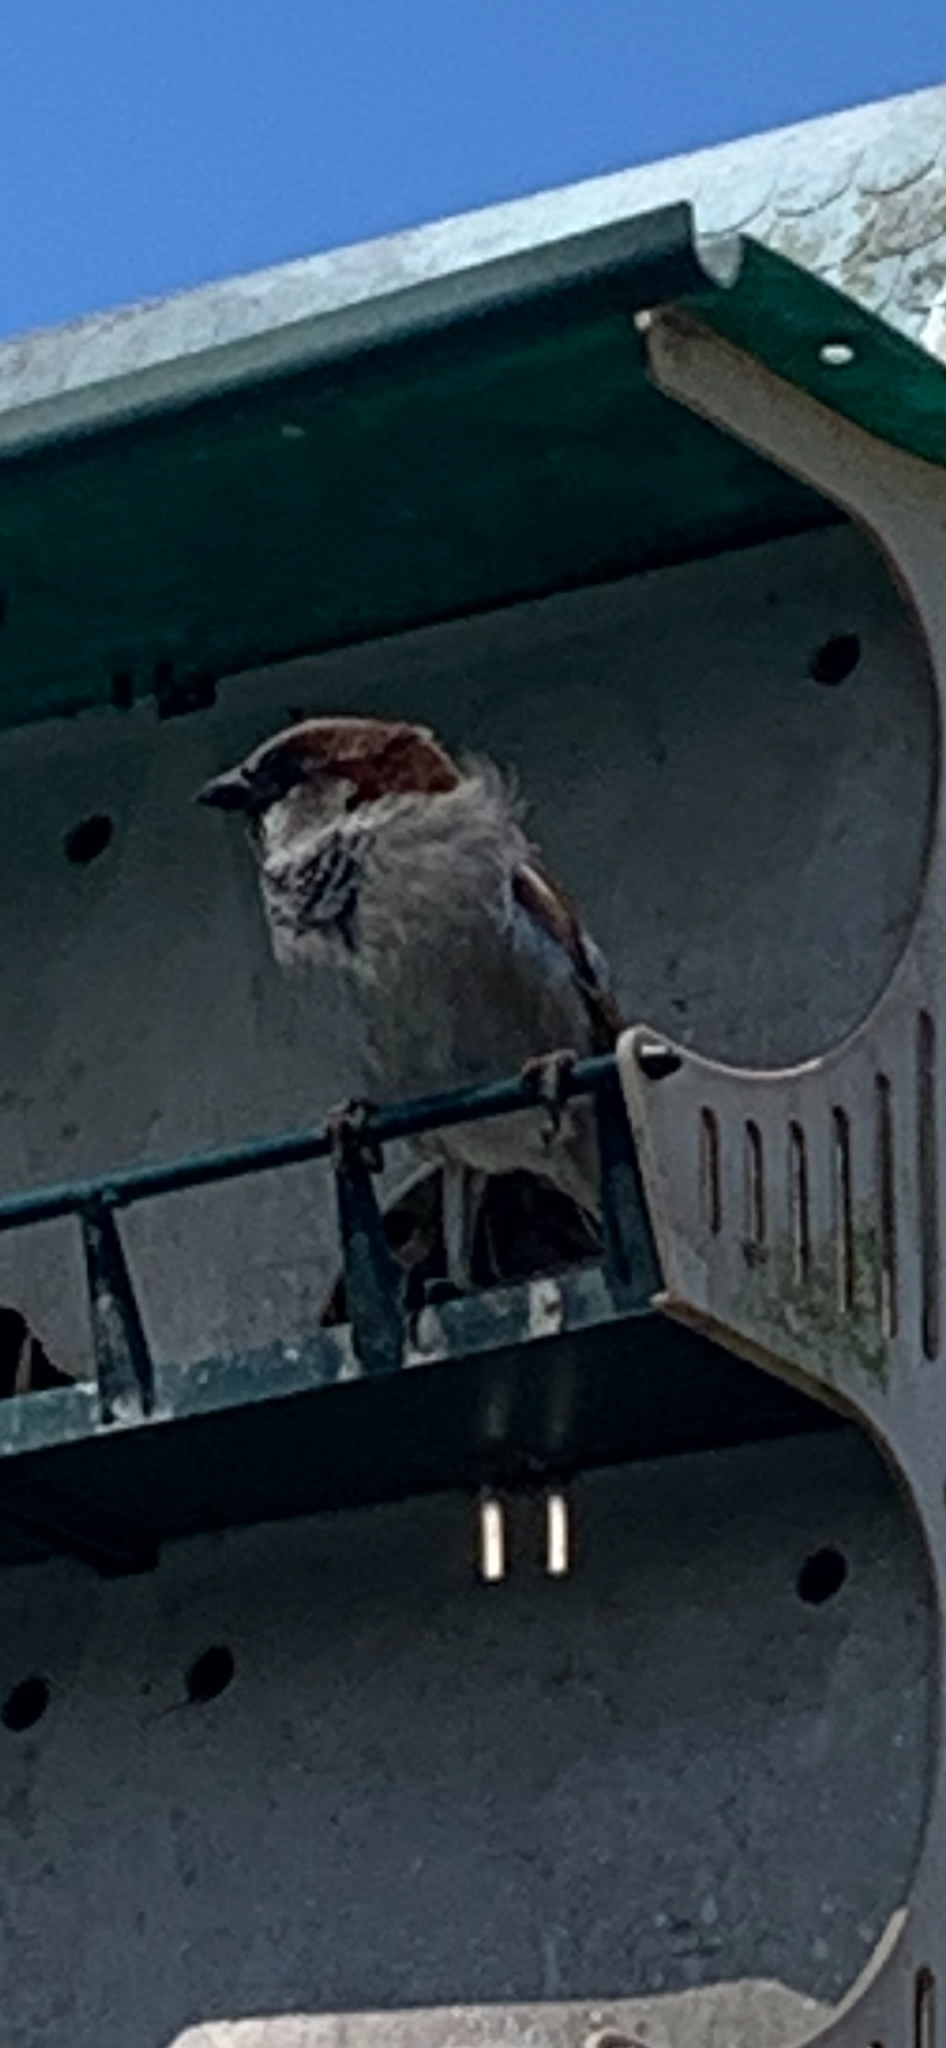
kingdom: Animalia
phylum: Chordata
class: Aves
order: Passeriformes
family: Passeridae
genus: Passer
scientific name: Passer domesticus
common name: House sparrow
